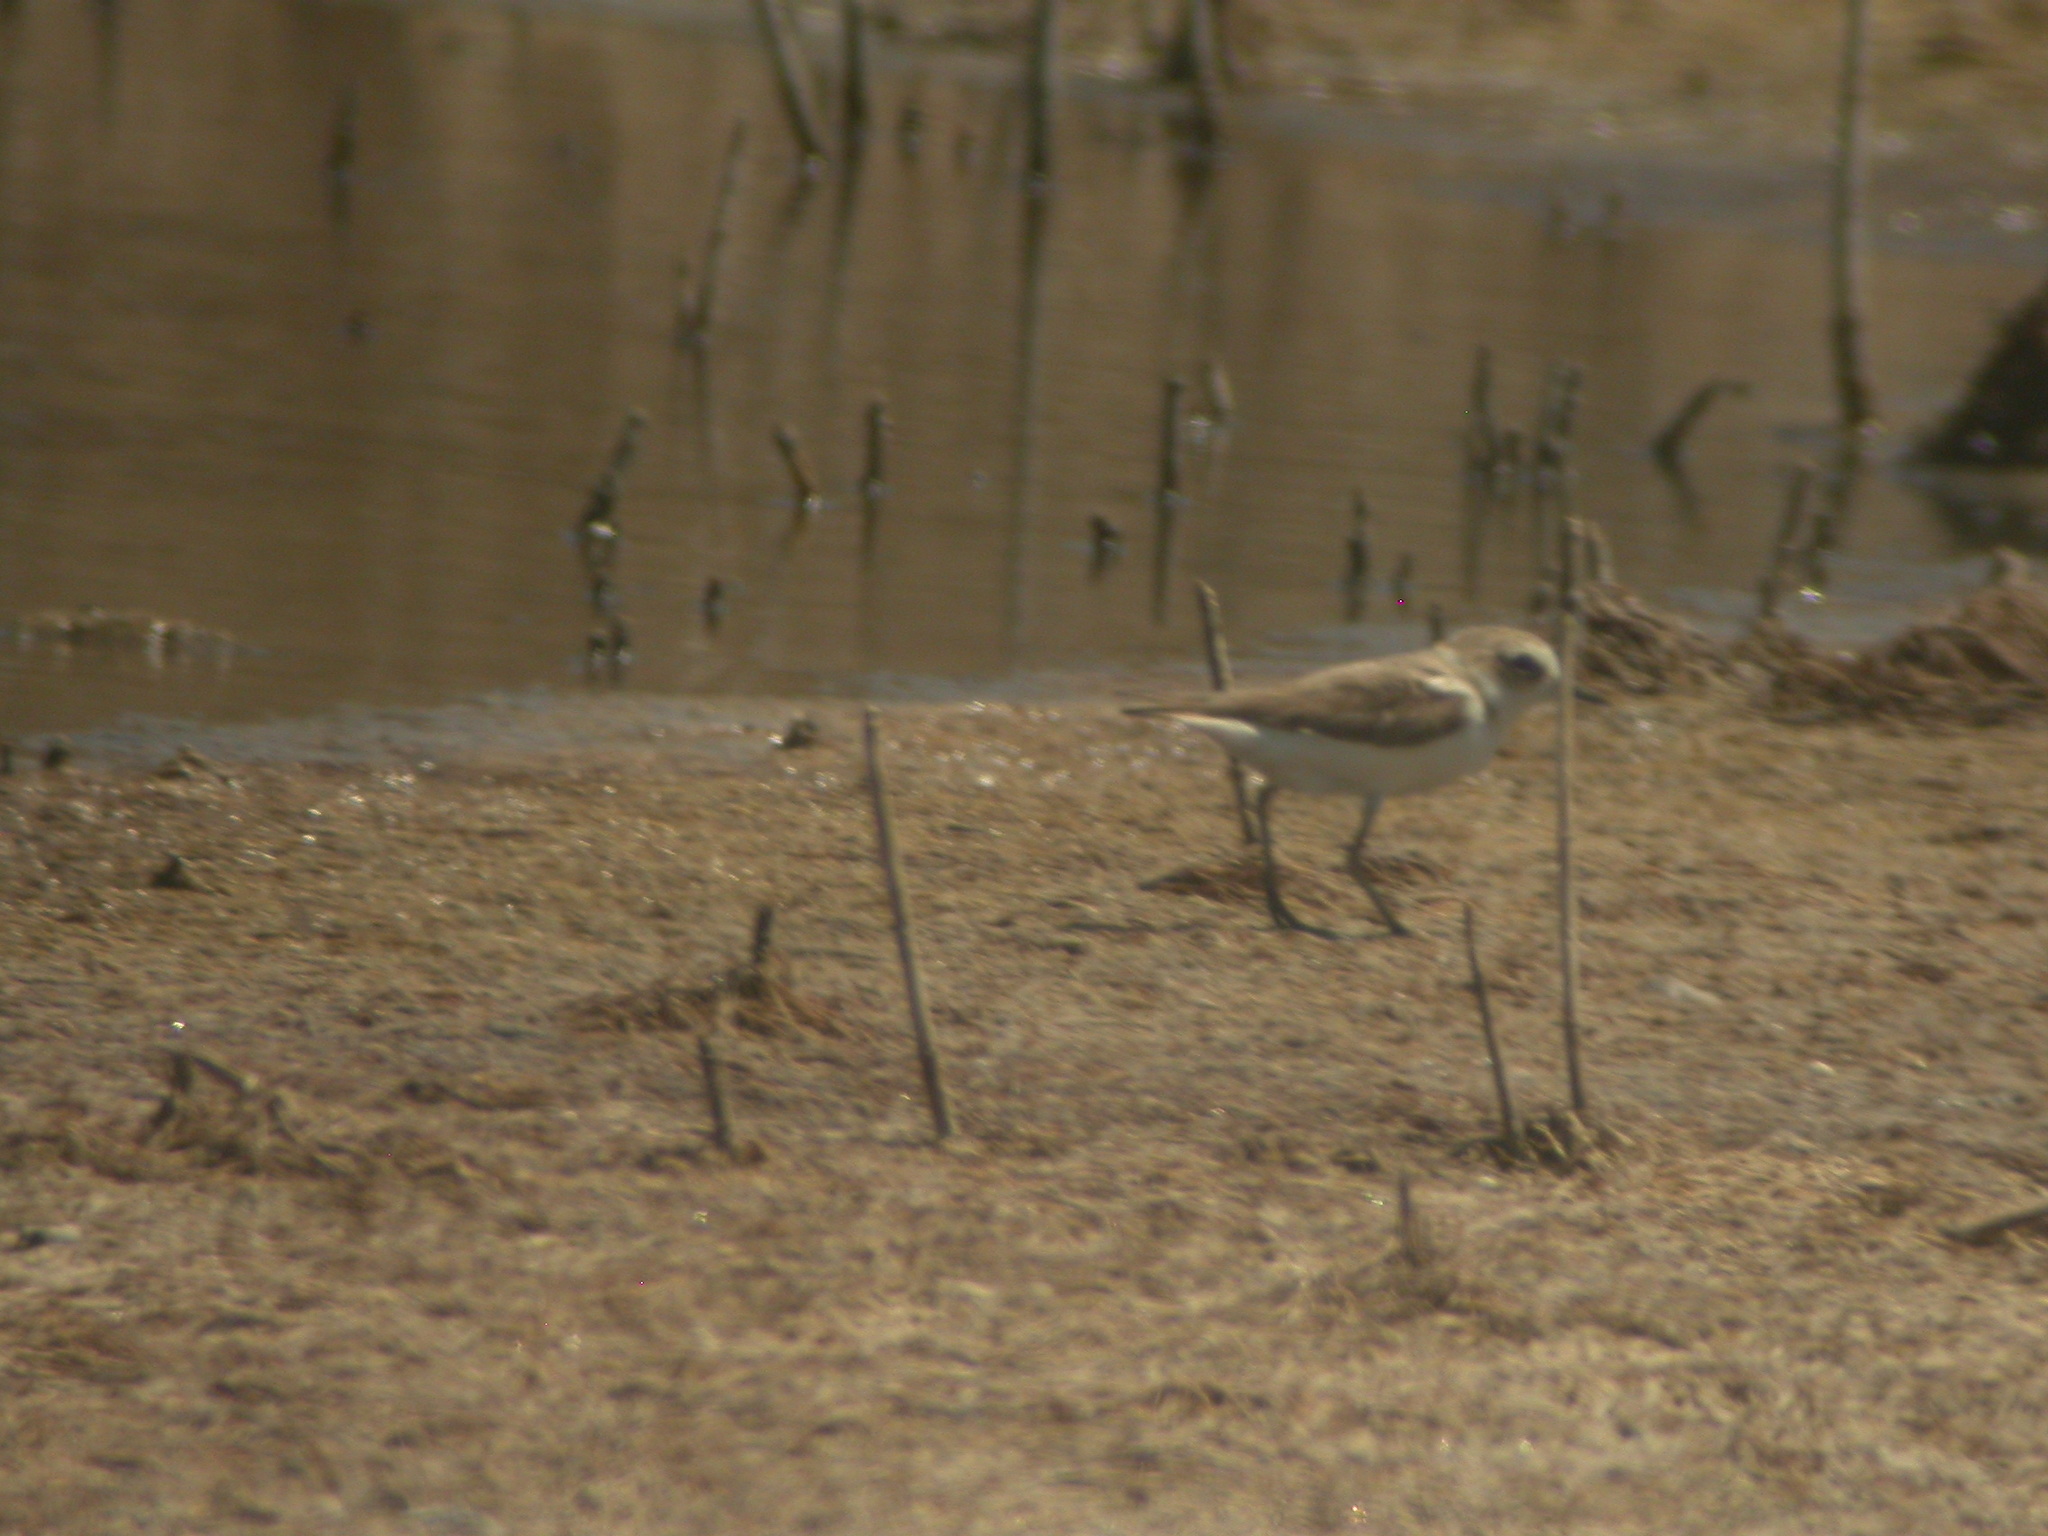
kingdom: Animalia
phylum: Chordata
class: Aves
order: Charadriiformes
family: Charadriidae
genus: Charadrius
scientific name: Charadrius alexandrinus
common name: Kentish plover
